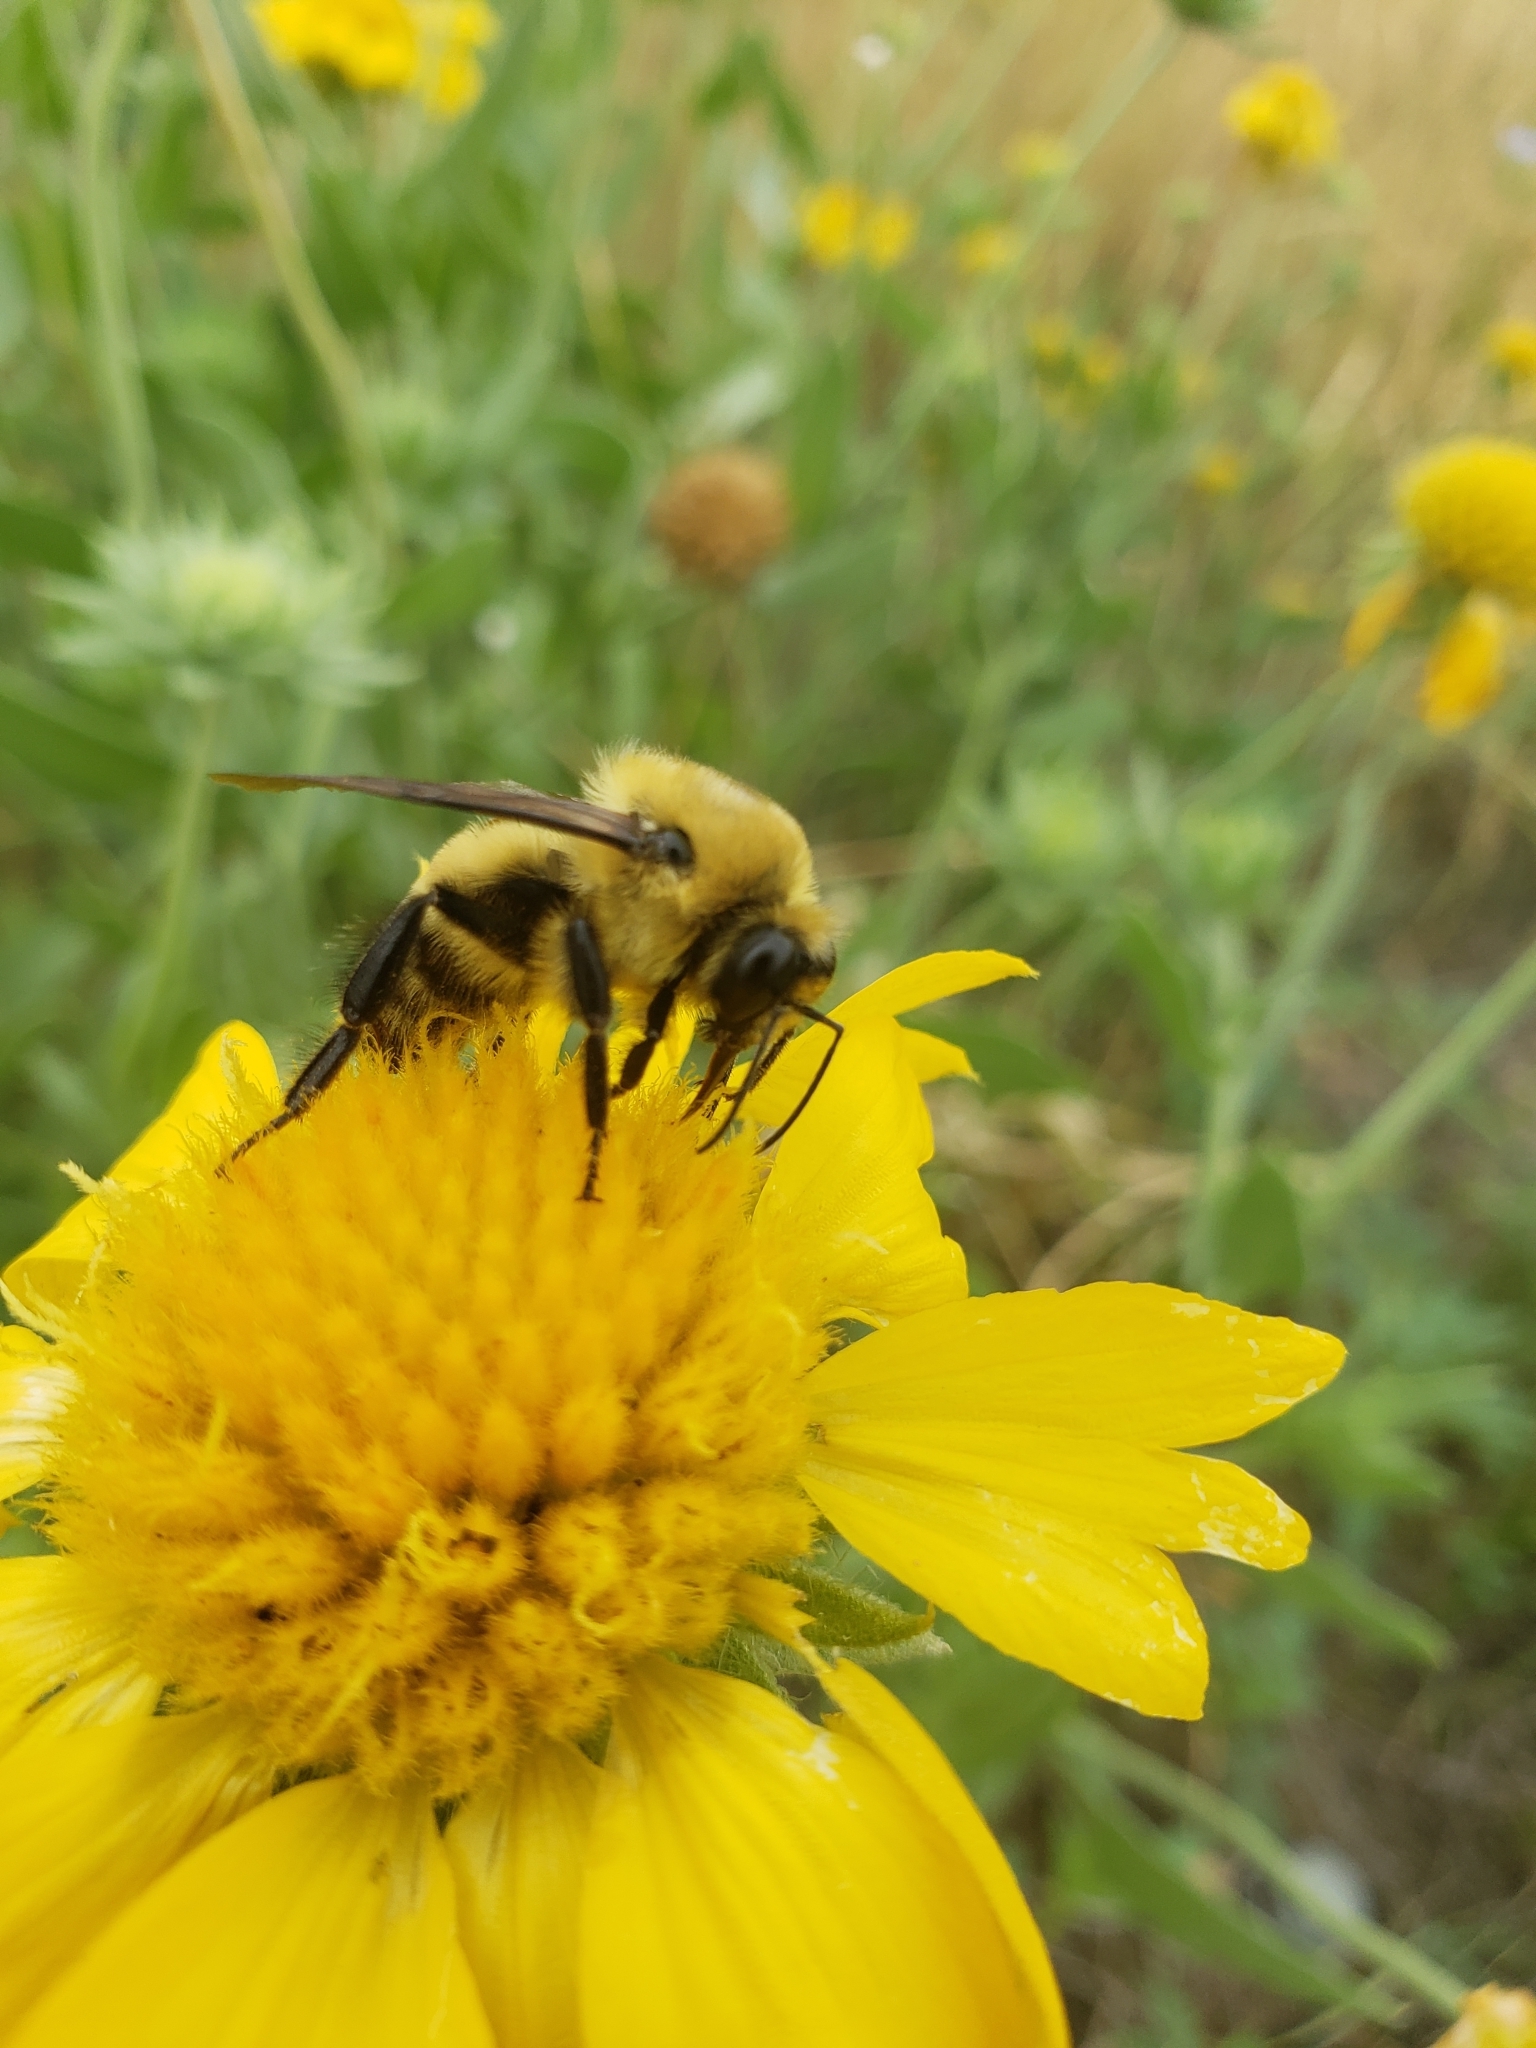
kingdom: Animalia
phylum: Arthropoda
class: Insecta
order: Hymenoptera
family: Apidae
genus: Bombus
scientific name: Bombus griseocollis
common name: Brown-belted bumble bee
